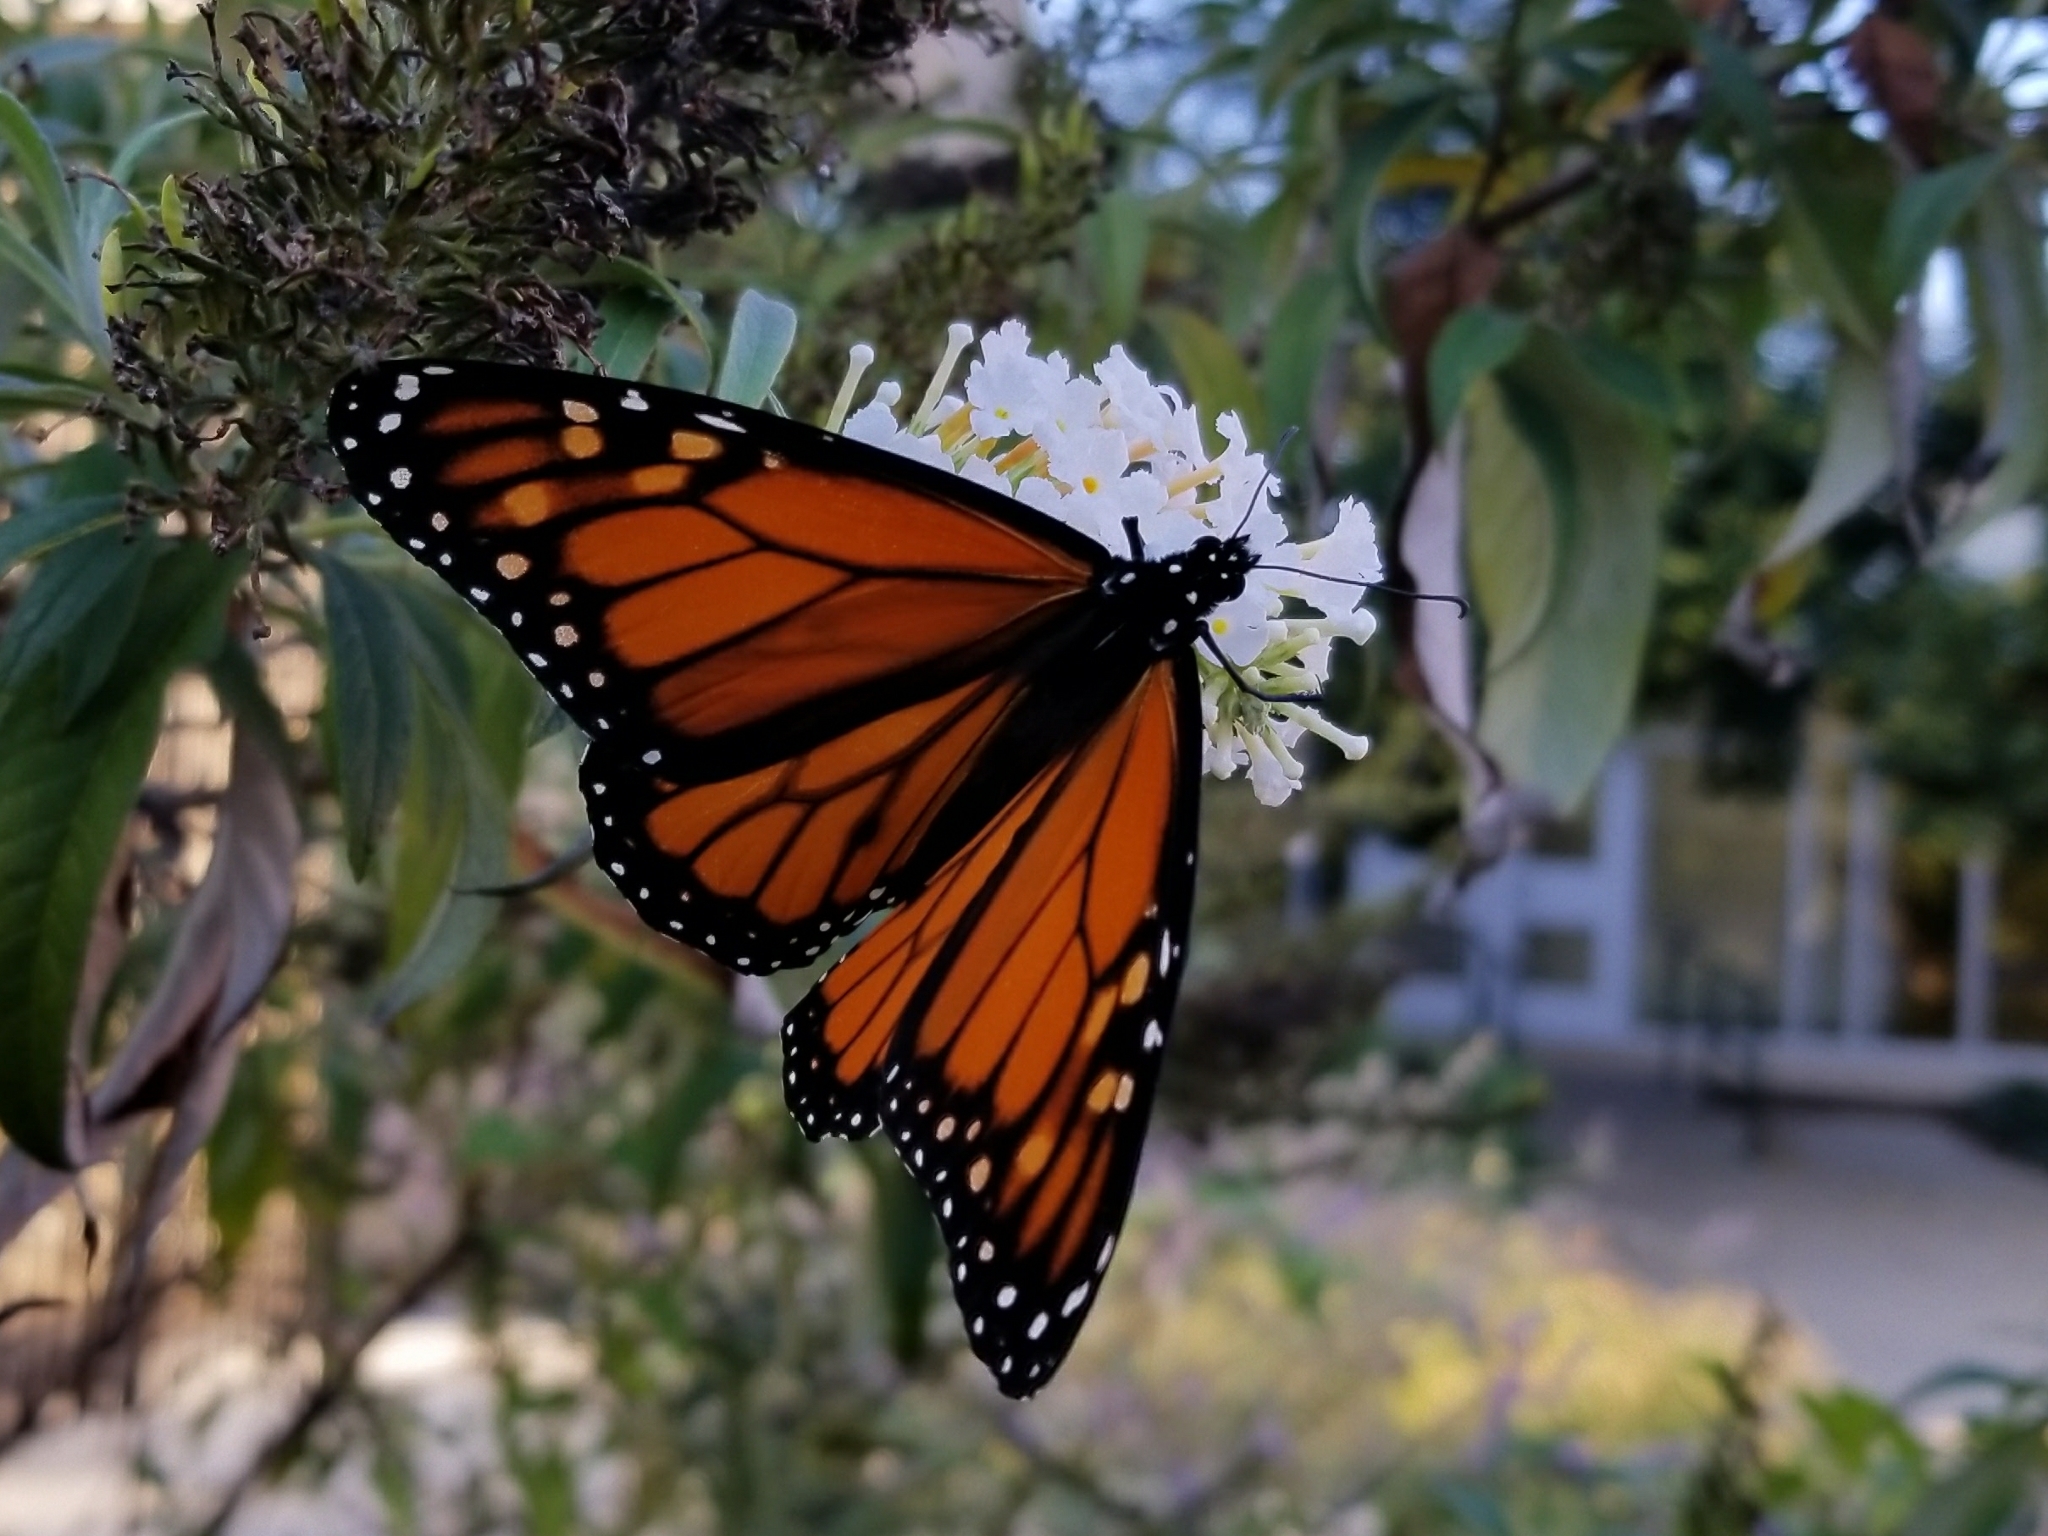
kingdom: Animalia
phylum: Arthropoda
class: Insecta
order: Lepidoptera
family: Nymphalidae
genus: Danaus
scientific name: Danaus plexippus
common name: Monarch
